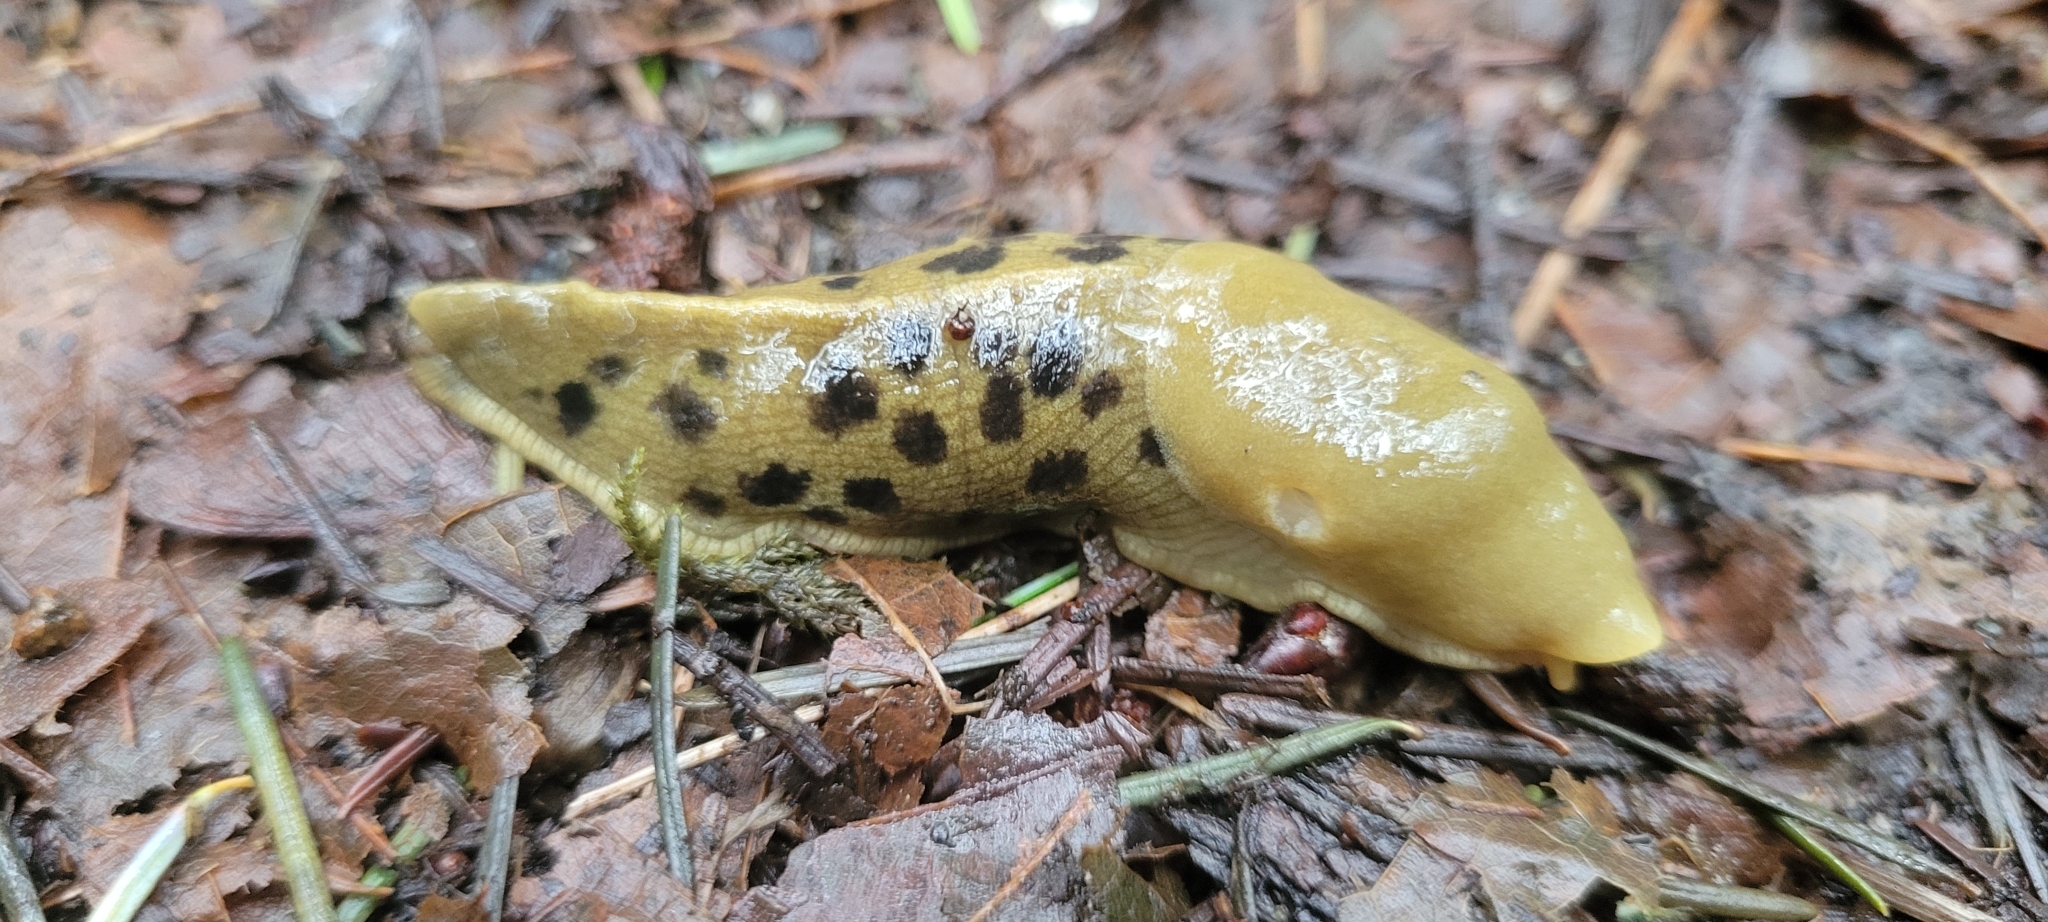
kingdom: Animalia
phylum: Mollusca
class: Gastropoda
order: Stylommatophora
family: Ariolimacidae
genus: Ariolimax
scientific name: Ariolimax columbianus
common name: Pacific banana slug
